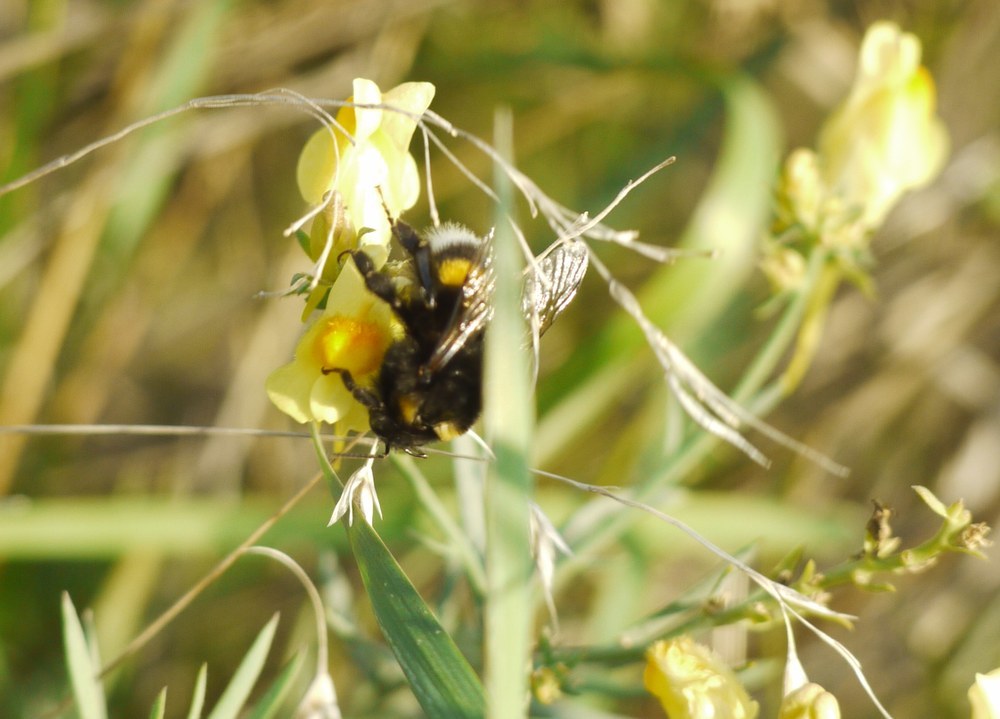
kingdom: Animalia
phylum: Arthropoda
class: Insecta
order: Hymenoptera
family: Apidae
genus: Bombus
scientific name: Bombus
